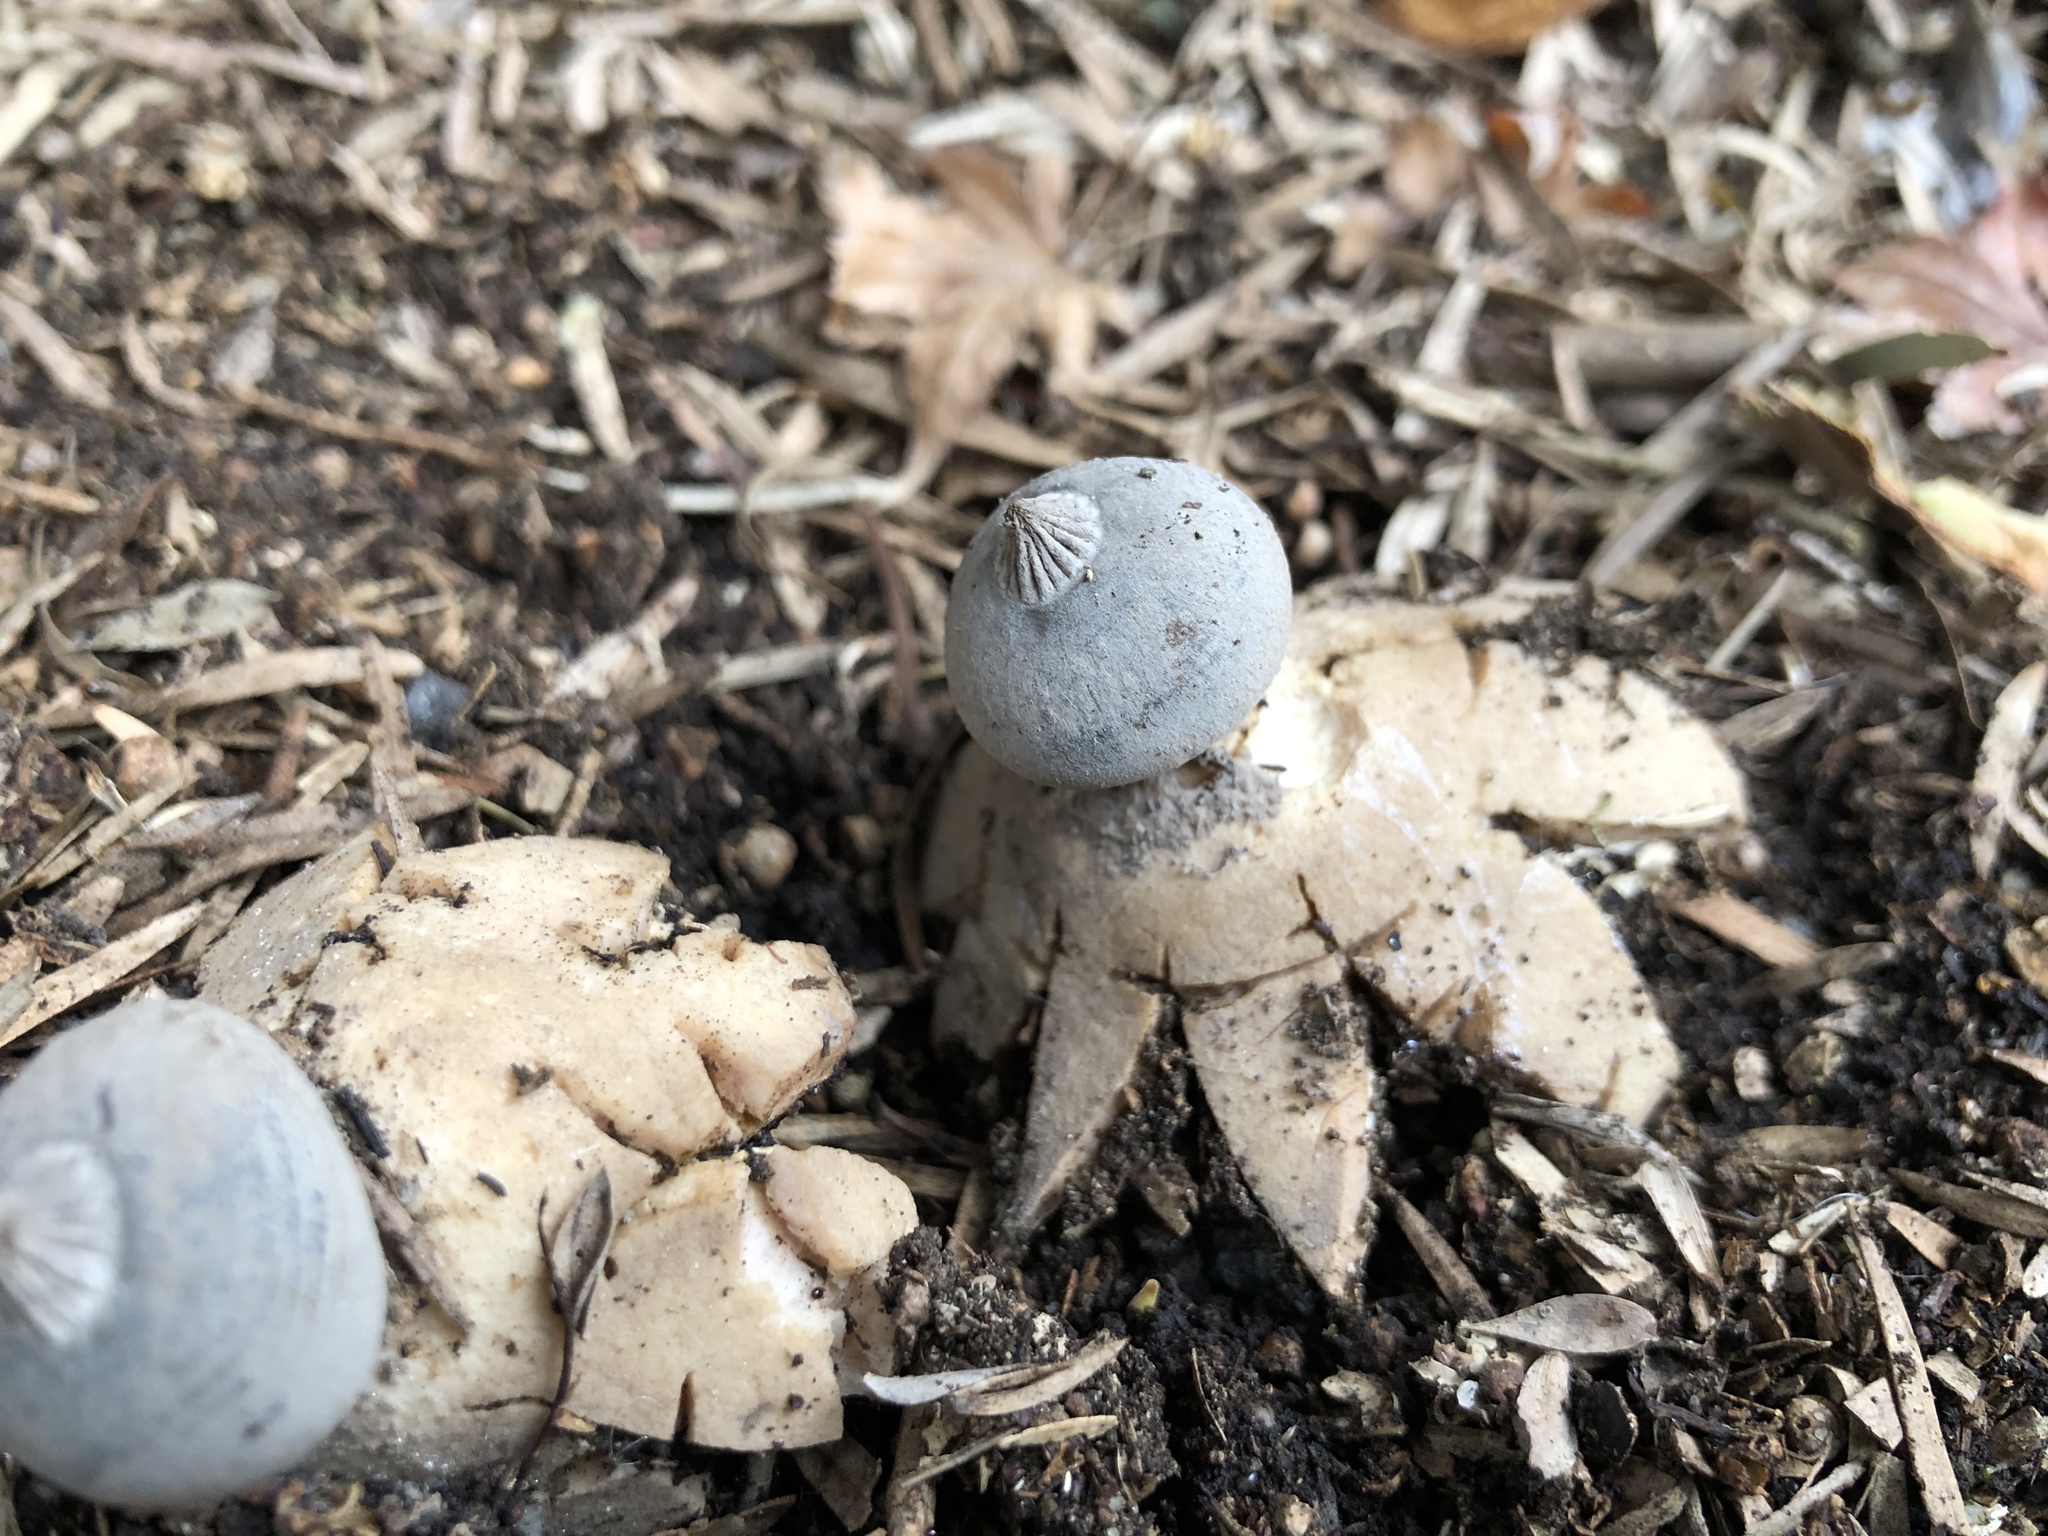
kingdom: Fungi
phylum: Basidiomycota
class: Agaricomycetes
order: Geastrales
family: Geastraceae
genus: Geastrum
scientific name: Geastrum pectinatum
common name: Beaked earthstar
